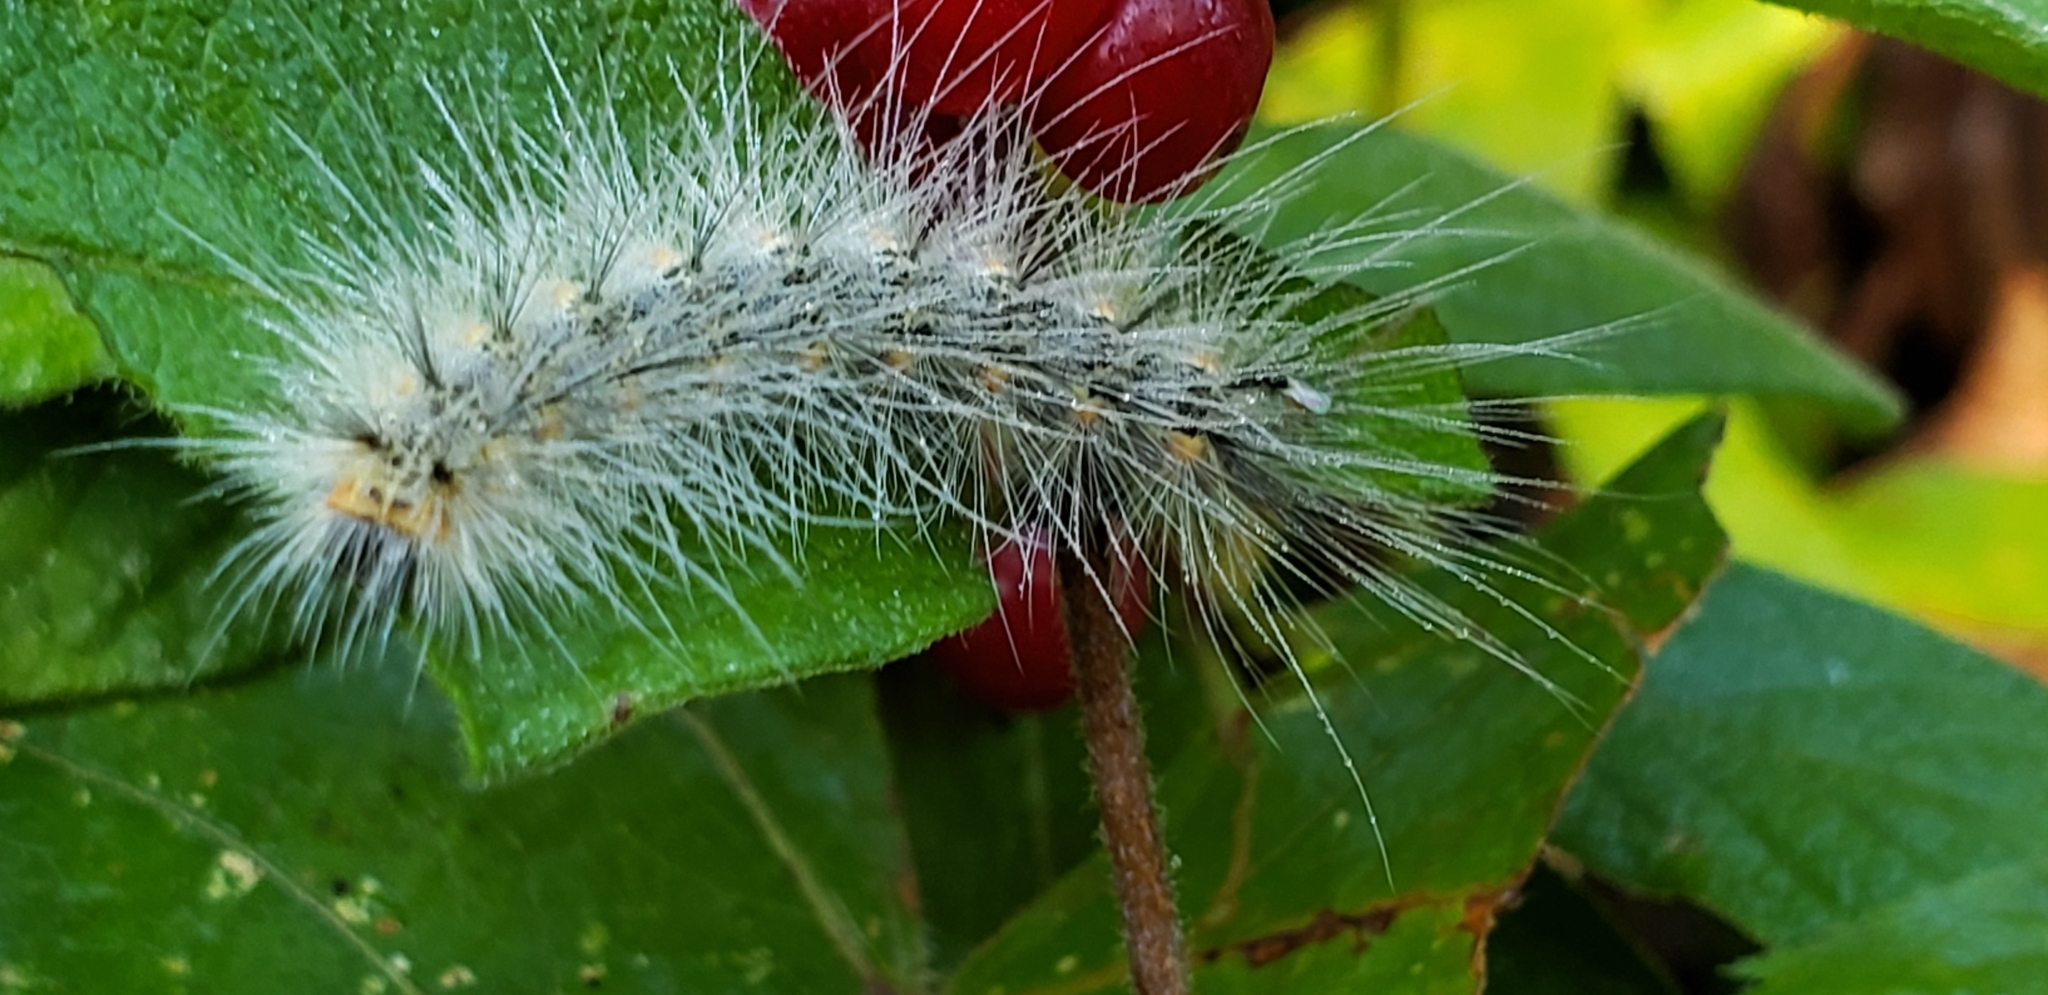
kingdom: Animalia
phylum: Arthropoda
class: Insecta
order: Lepidoptera
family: Erebidae
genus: Hyphantria
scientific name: Hyphantria cunea
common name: American white moth
